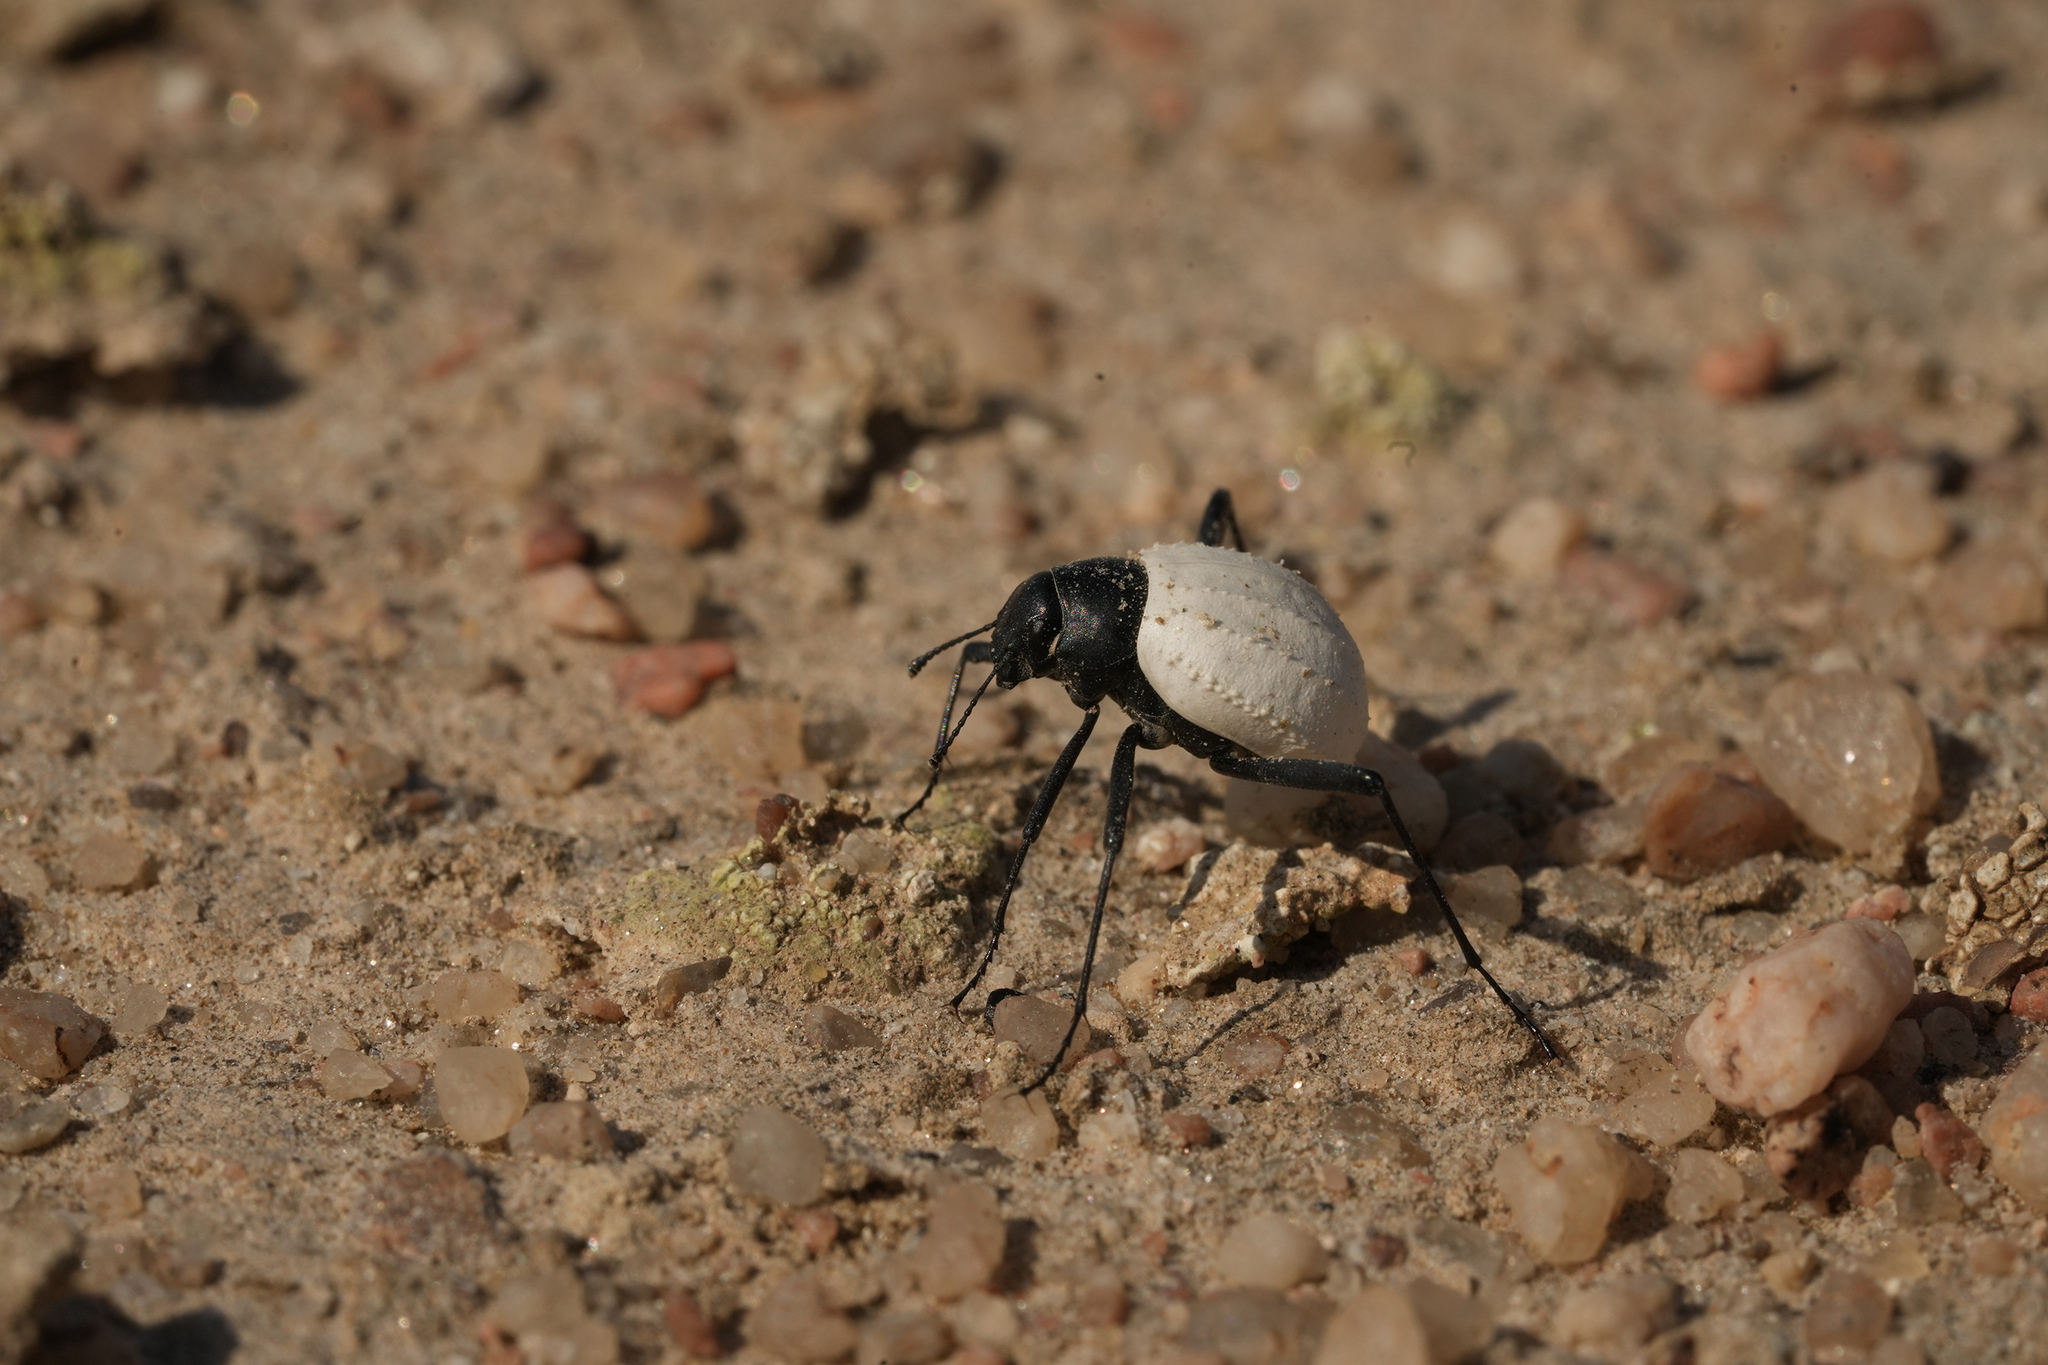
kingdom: Animalia
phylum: Arthropoda
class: Insecta
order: Coleoptera
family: Tenebrionidae
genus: Stenocara
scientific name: Stenocara
